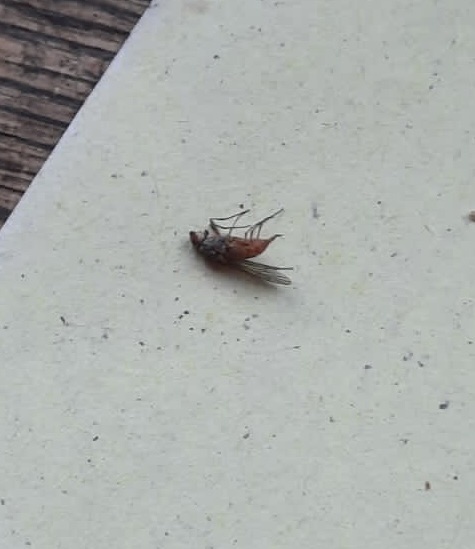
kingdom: Animalia
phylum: Arthropoda
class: Insecta
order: Diptera
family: Heleomyzidae
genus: Tephrochlamys
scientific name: Tephrochlamys flavipes
